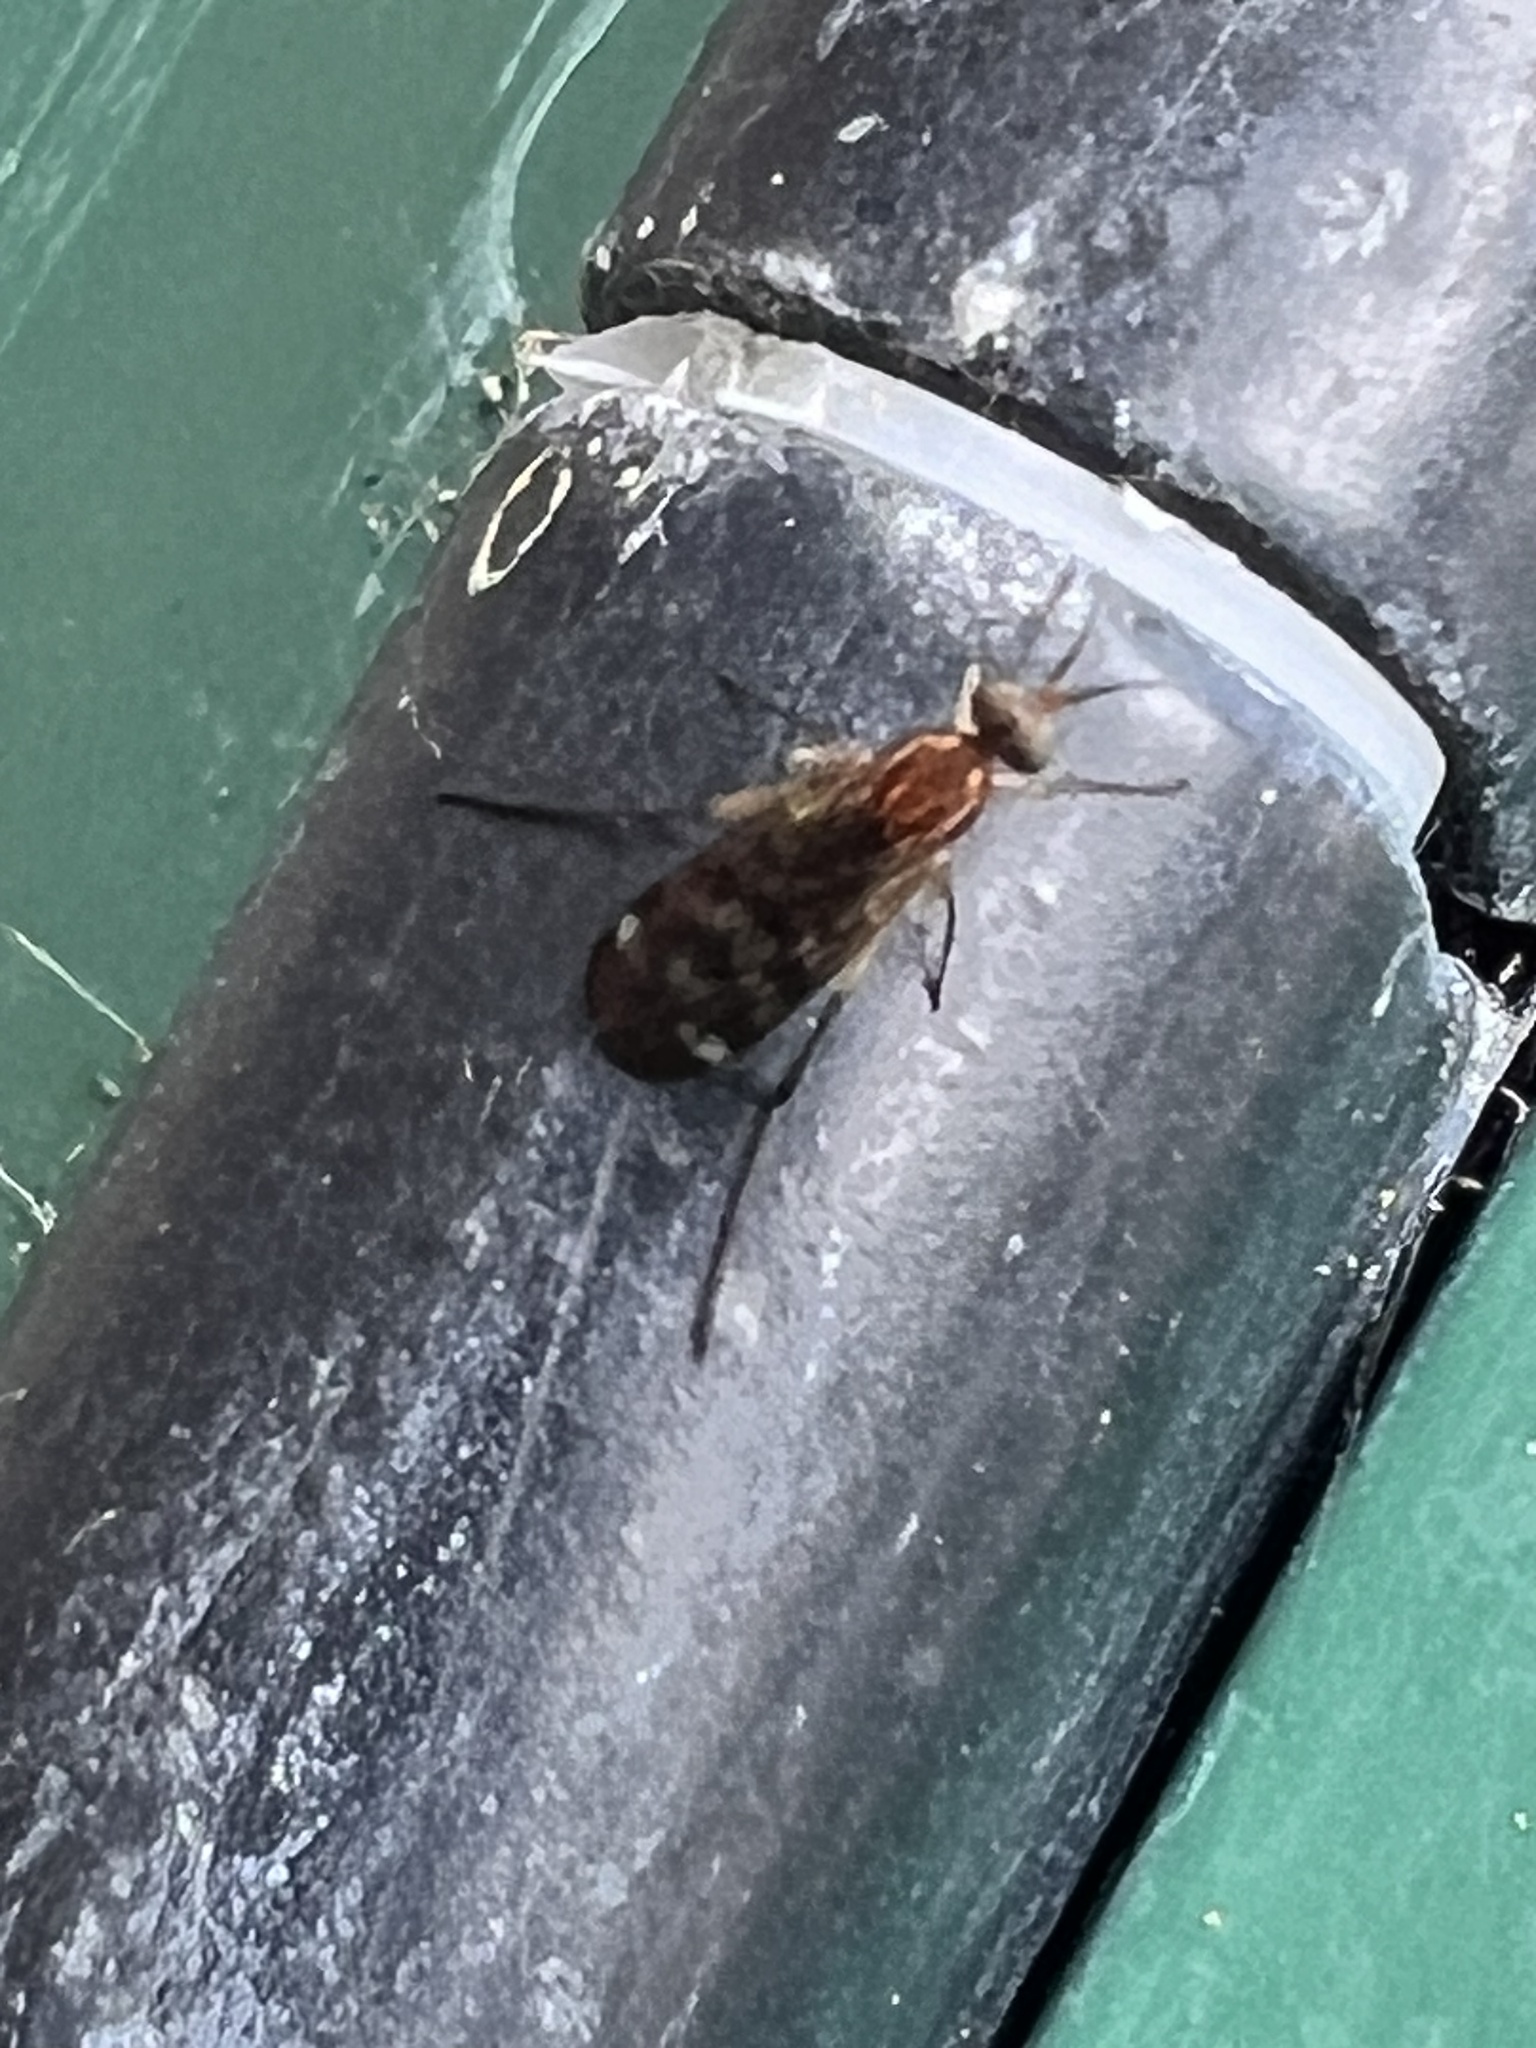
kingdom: Animalia
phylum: Arthropoda
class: Insecta
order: Diptera
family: Anisopodidae
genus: Sylvicola
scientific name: Sylvicola notatus
